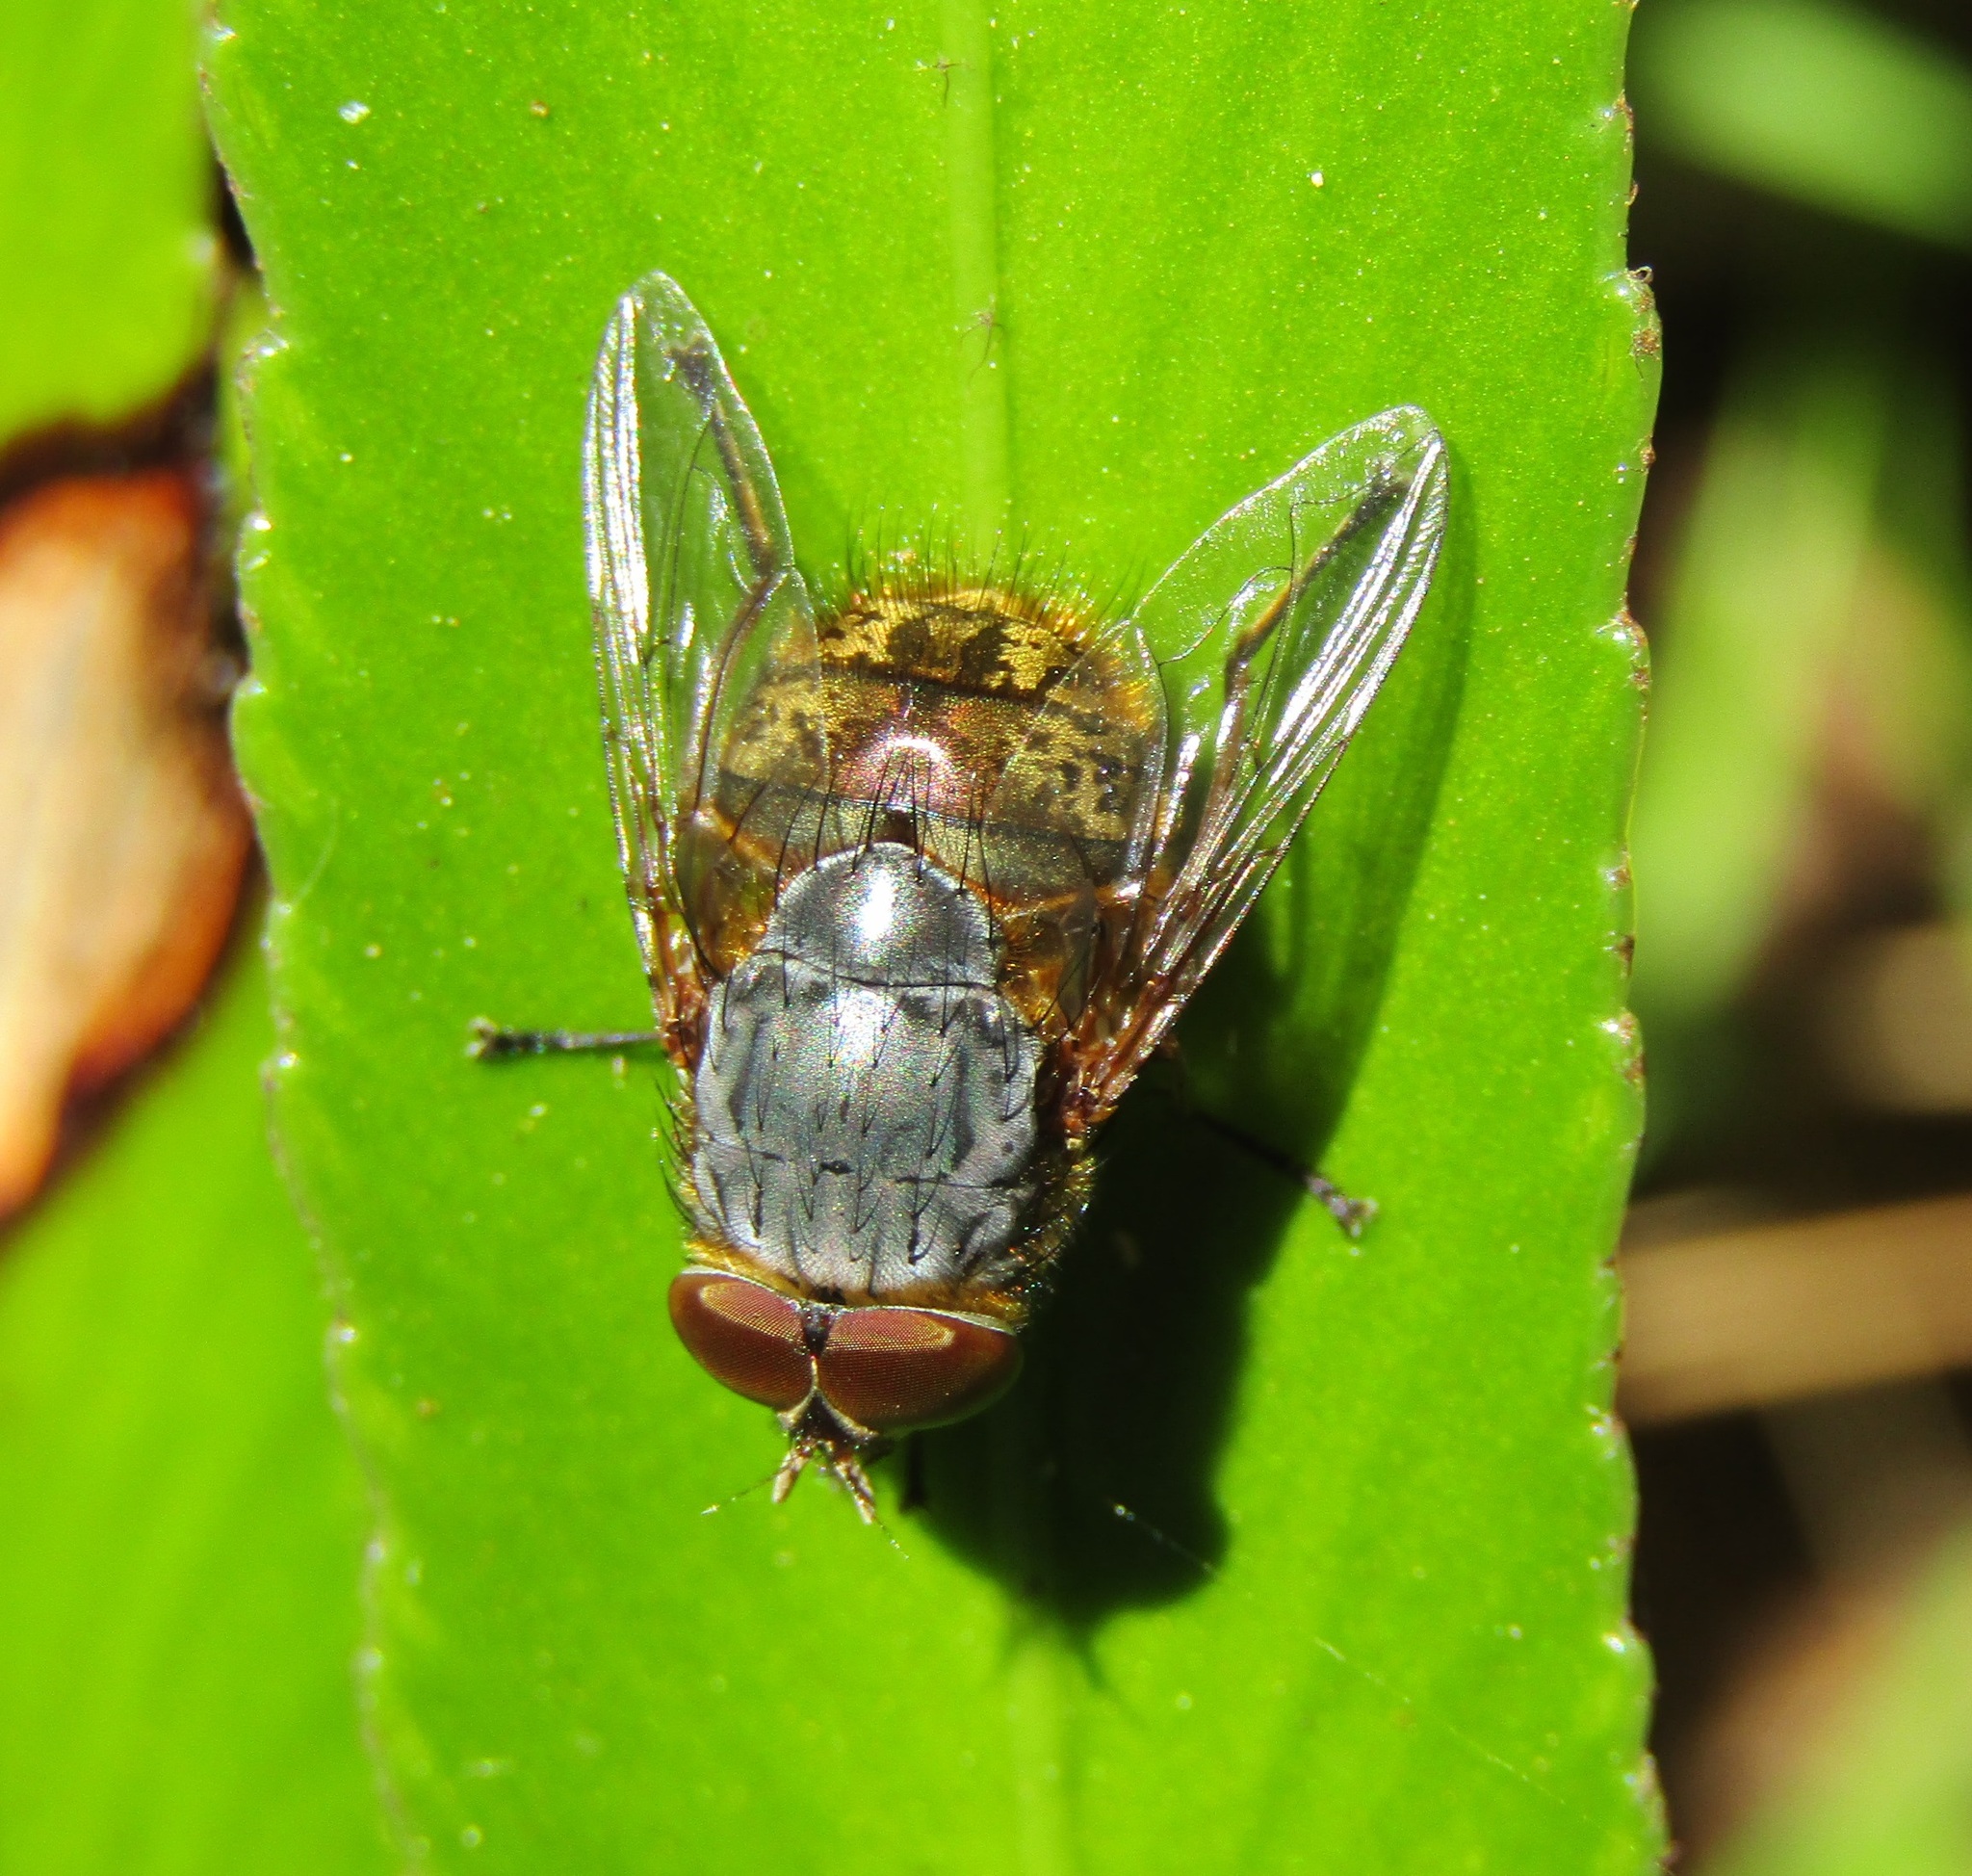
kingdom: Animalia
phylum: Arthropoda
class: Insecta
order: Diptera
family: Calliphoridae
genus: Calliphora
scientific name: Calliphora stygia
